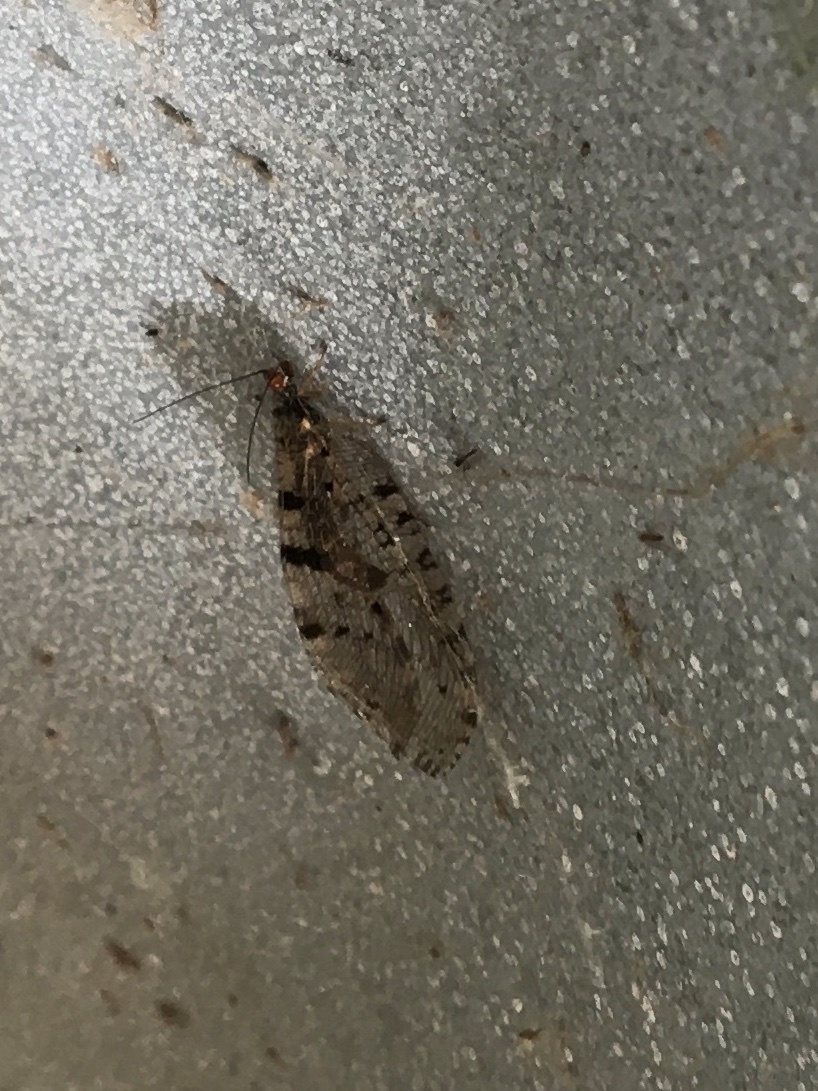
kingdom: Animalia
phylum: Arthropoda
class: Insecta
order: Neuroptera
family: Osmylidae
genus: Osmylus
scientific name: Osmylus fulvicephalus
